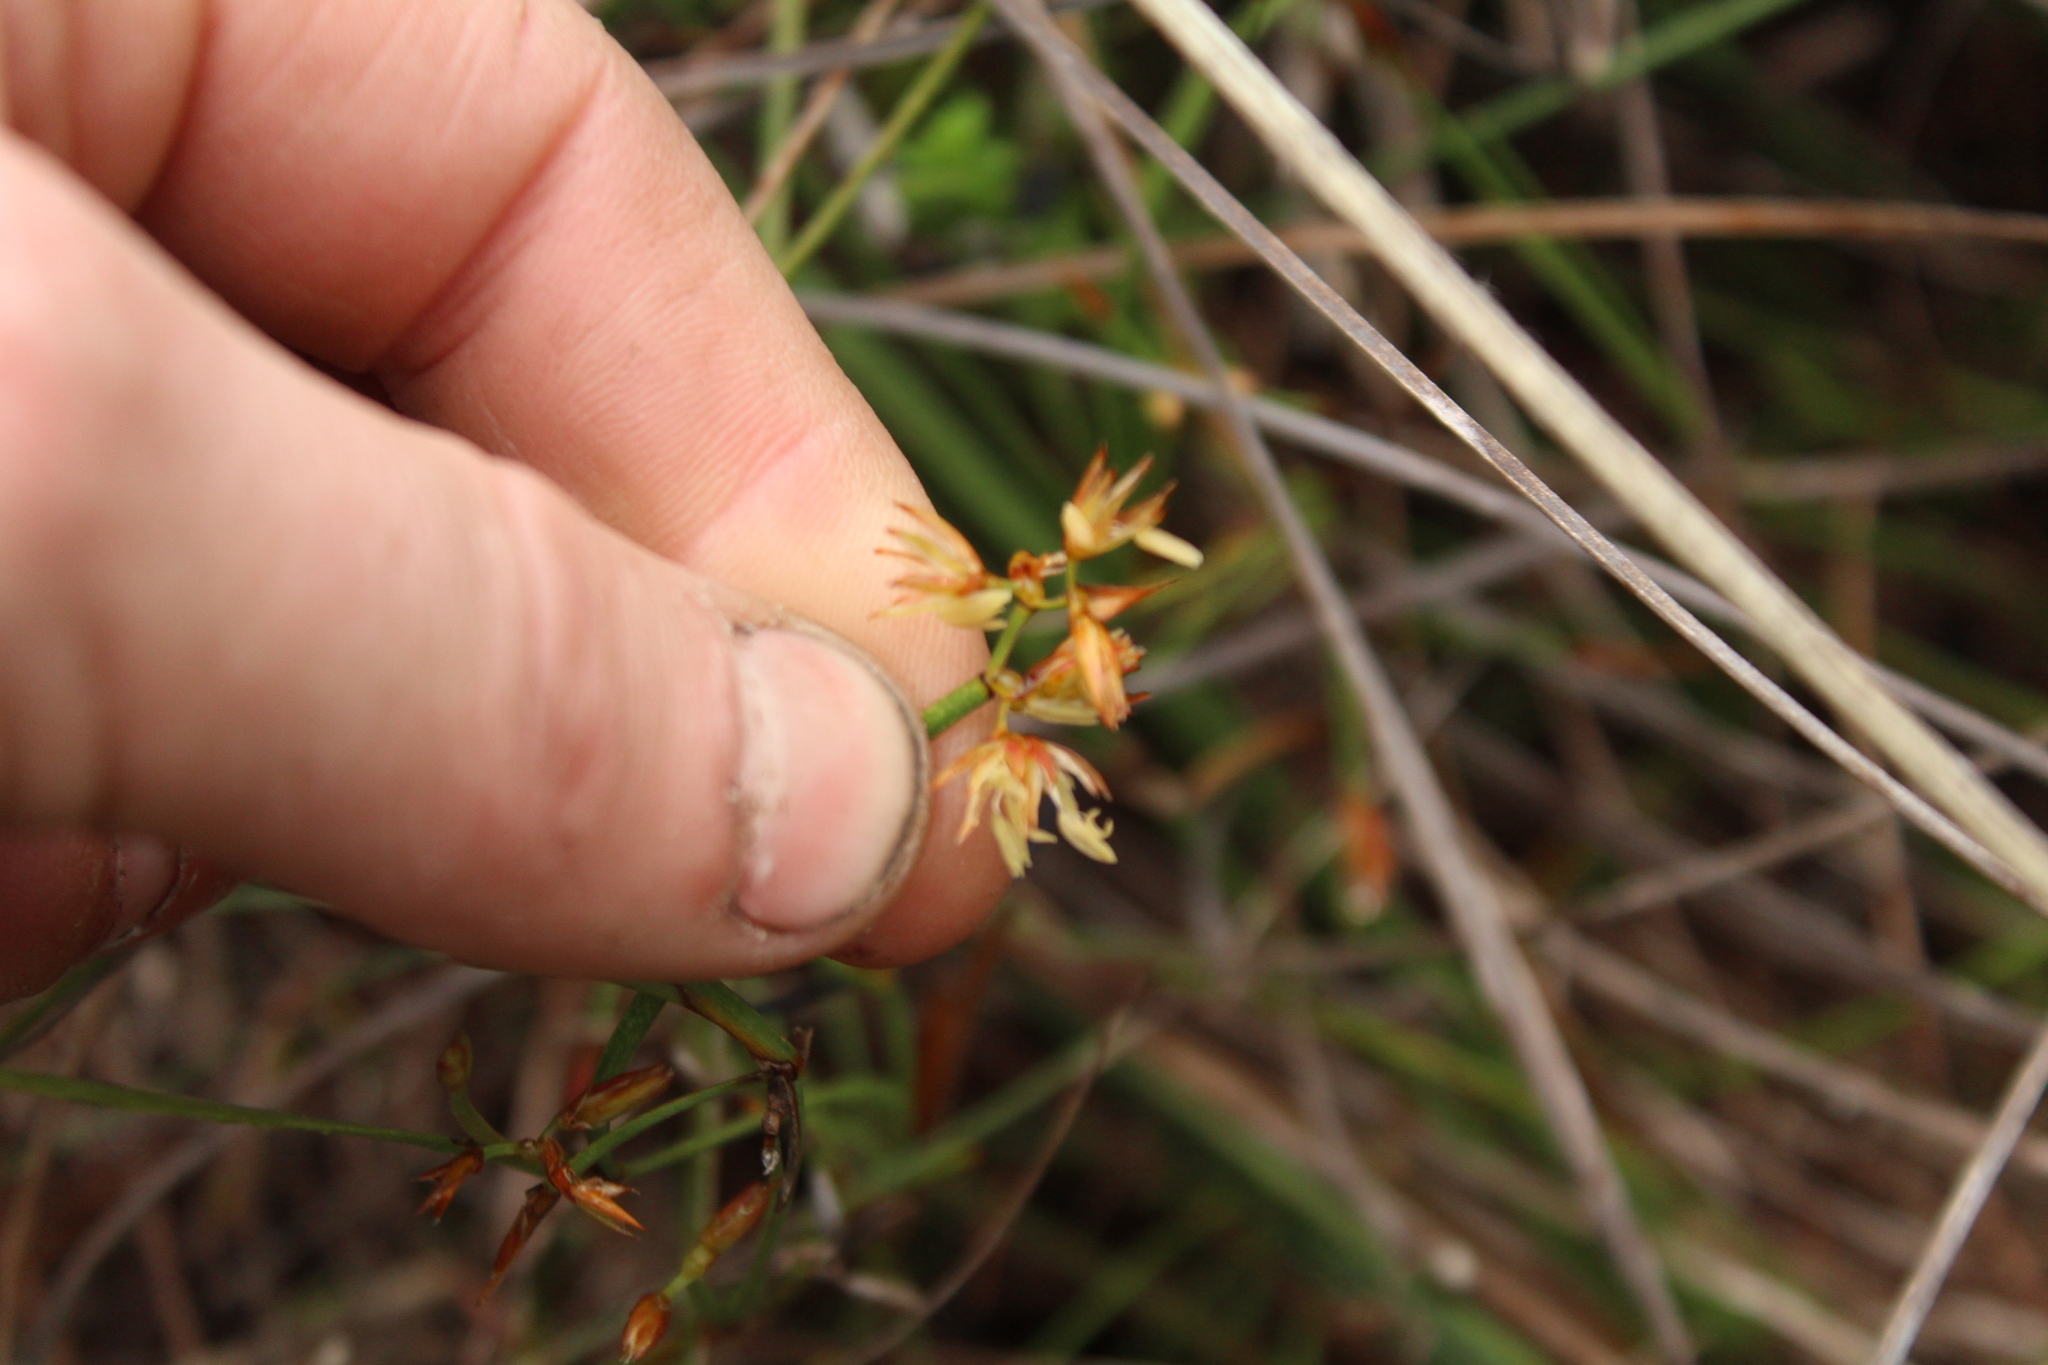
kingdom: Plantae
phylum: Tracheophyta
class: Liliopsida
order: Poales
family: Restionaceae
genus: Anarthria
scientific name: Anarthria prolifera
